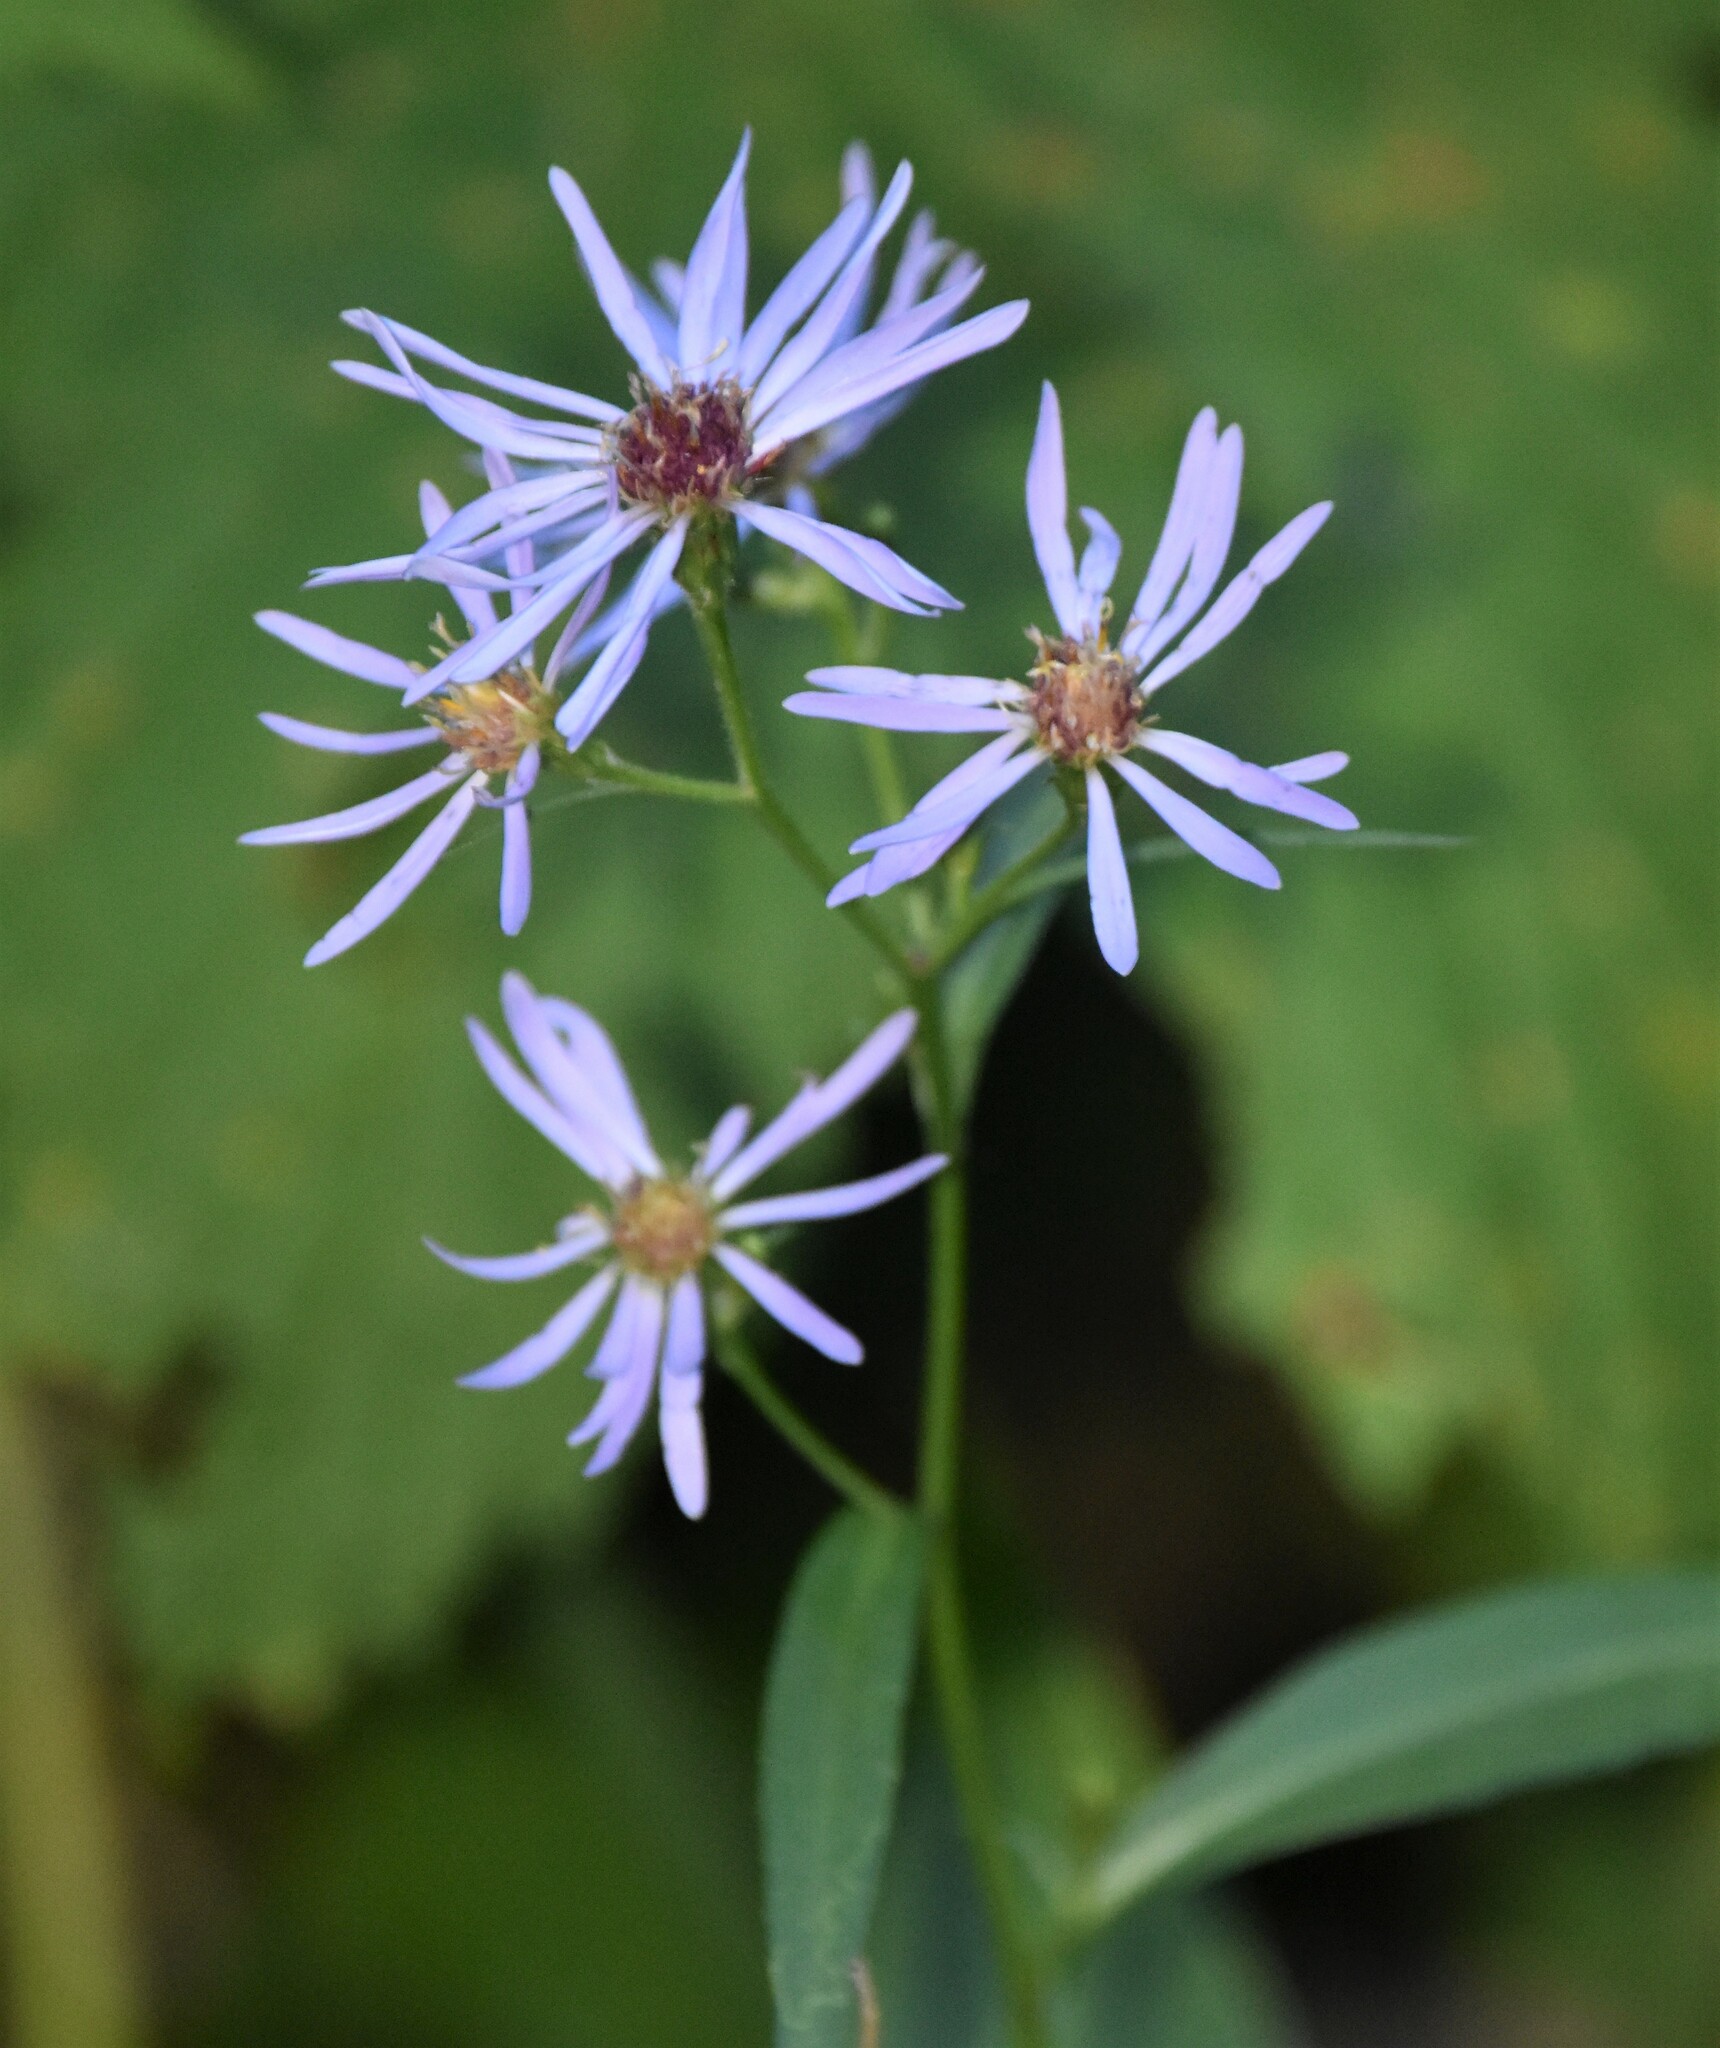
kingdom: Plantae
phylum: Tracheophyta
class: Magnoliopsida
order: Asterales
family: Asteraceae
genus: Symphyotrichum
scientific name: Symphyotrichum ciliolatum
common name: Fringed blue aster
